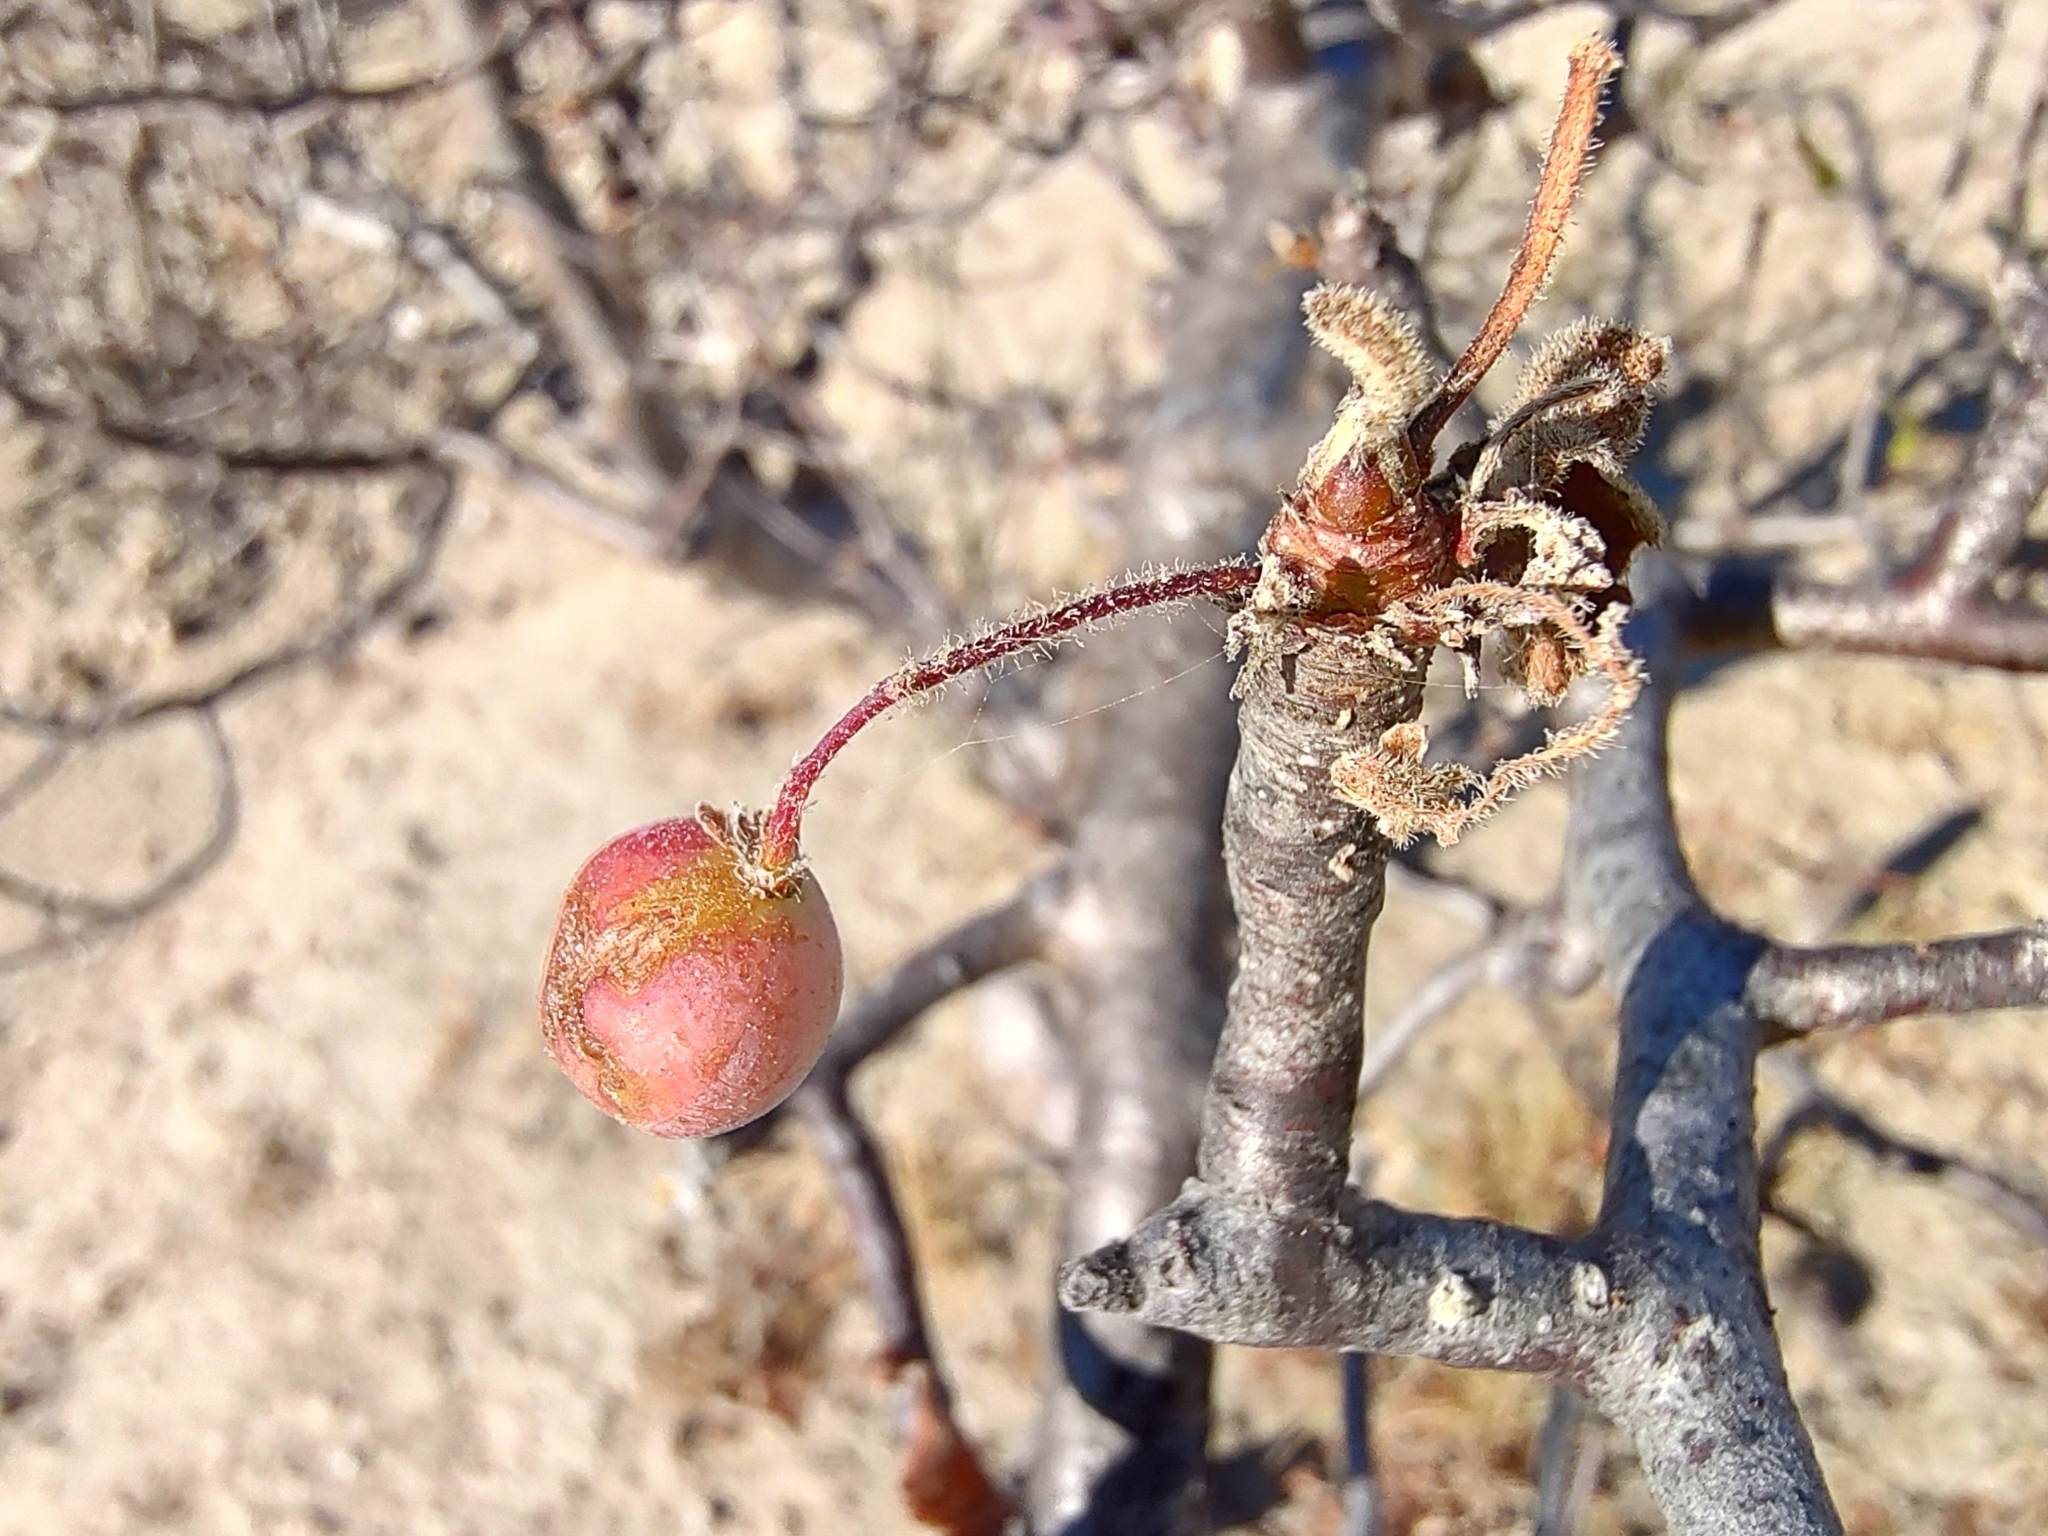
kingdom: Plantae
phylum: Tracheophyta
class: Magnoliopsida
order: Sapindales
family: Burseraceae
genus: Bursera
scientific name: Bursera epinnata
